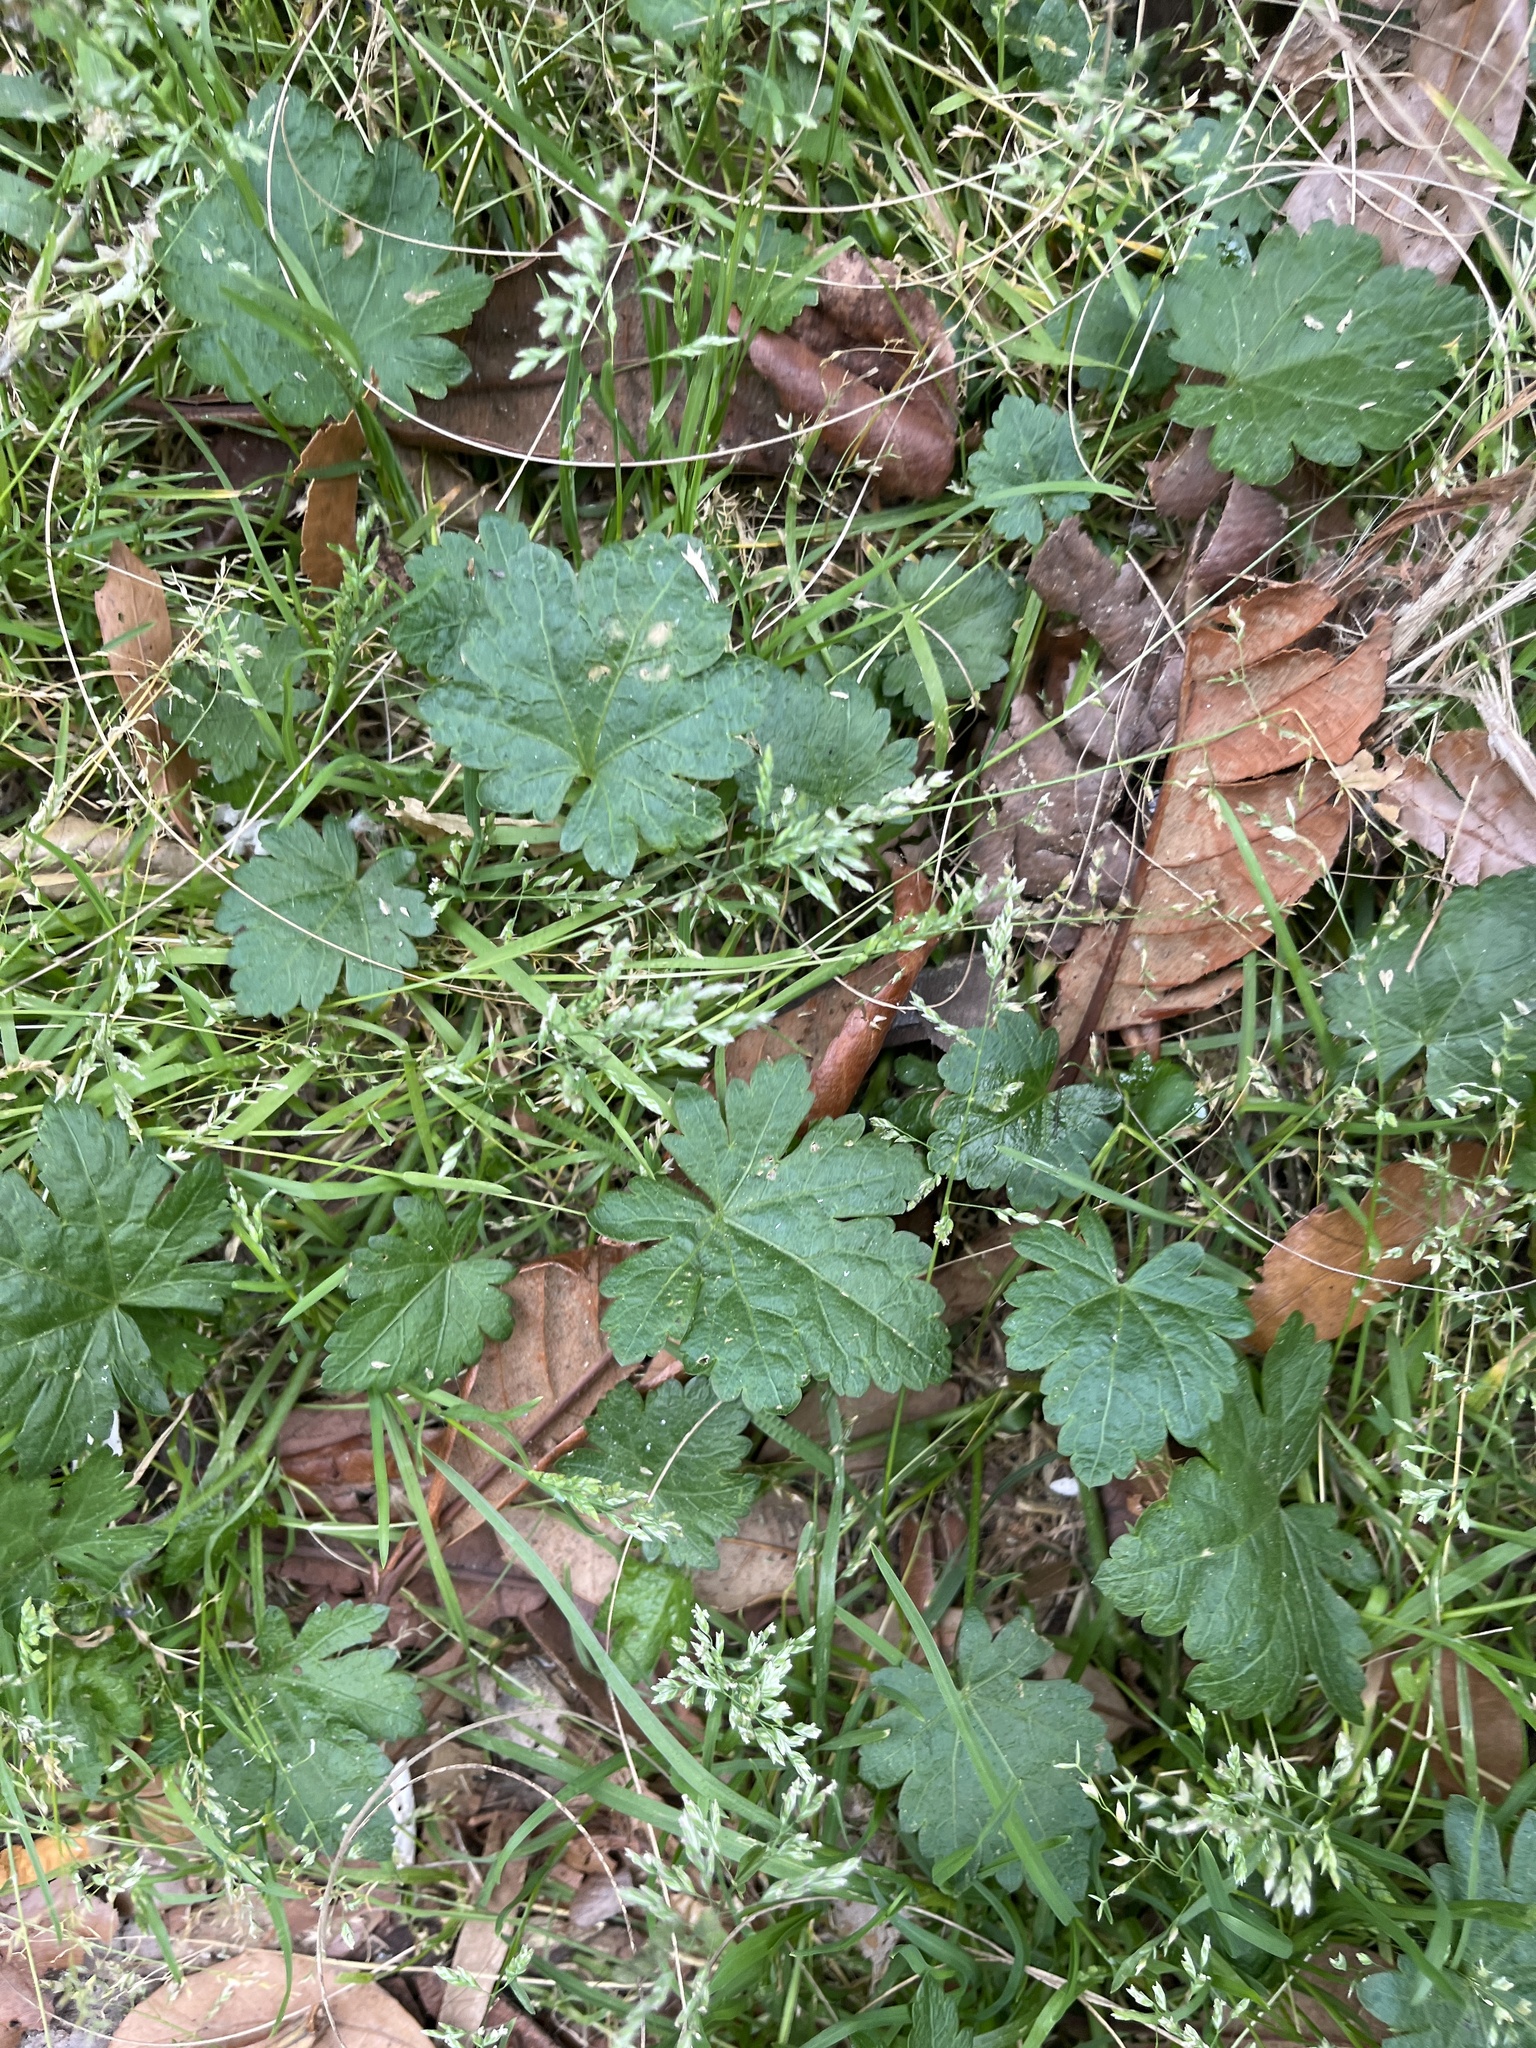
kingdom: Plantae
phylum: Tracheophyta
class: Magnoliopsida
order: Malvales
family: Malvaceae
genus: Modiola
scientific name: Modiola caroliniana
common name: Carolina bristlemallow
